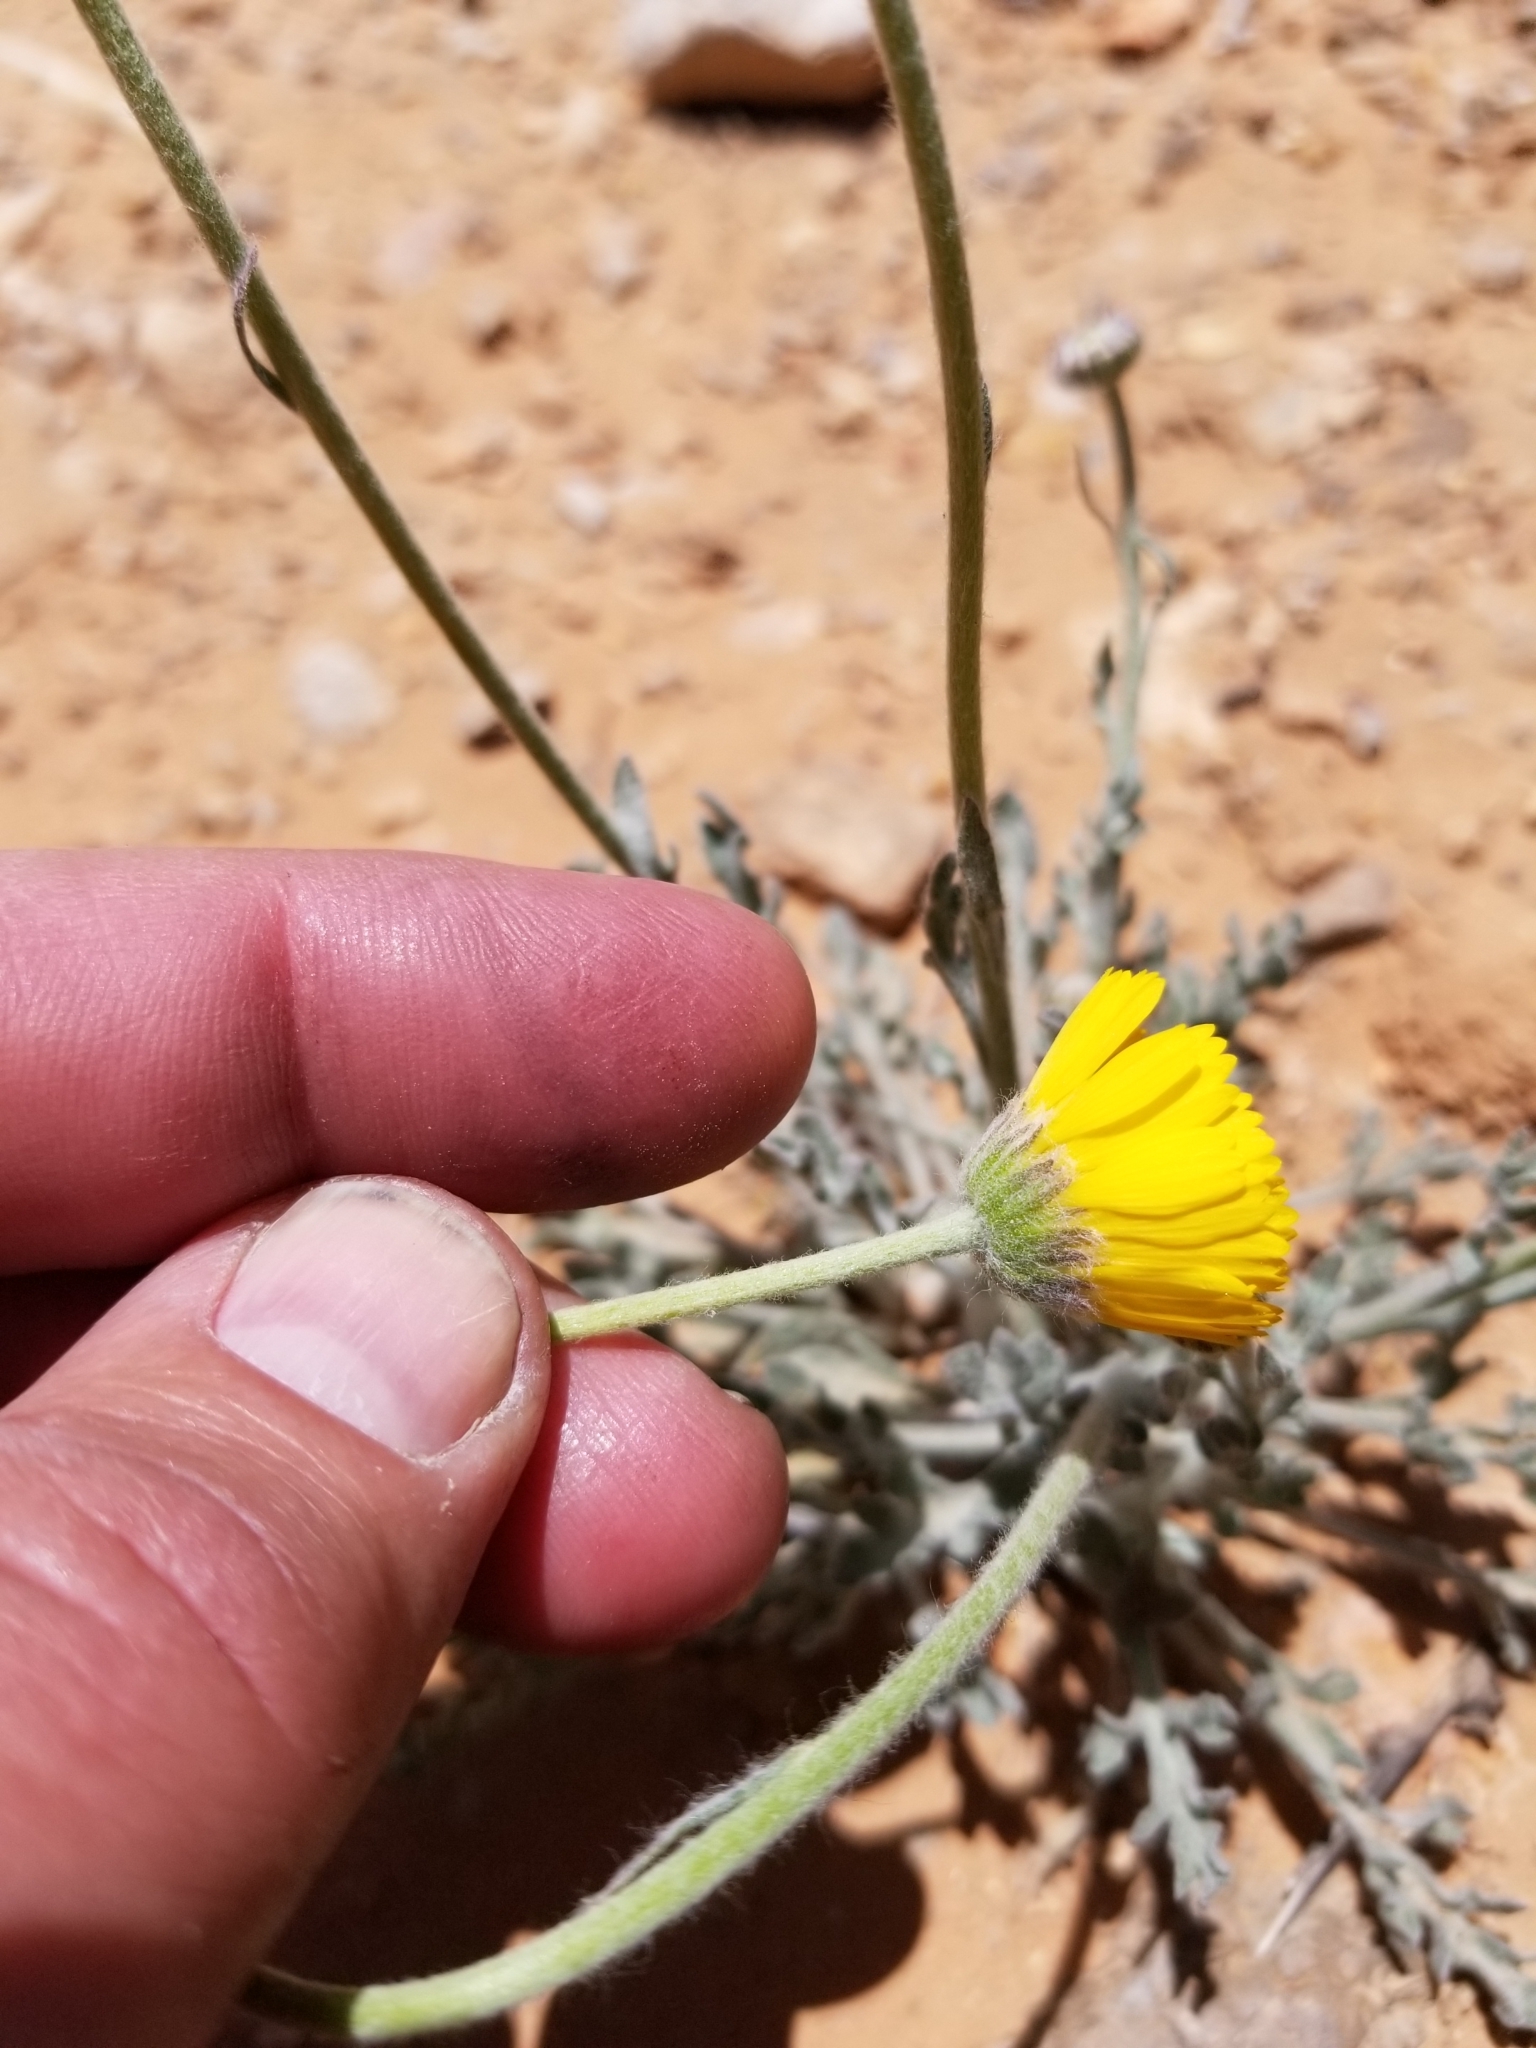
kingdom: Plantae
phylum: Tracheophyta
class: Magnoliopsida
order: Asterales
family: Asteraceae
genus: Baileya
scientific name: Baileya multiradiata
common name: Desert-marigold
